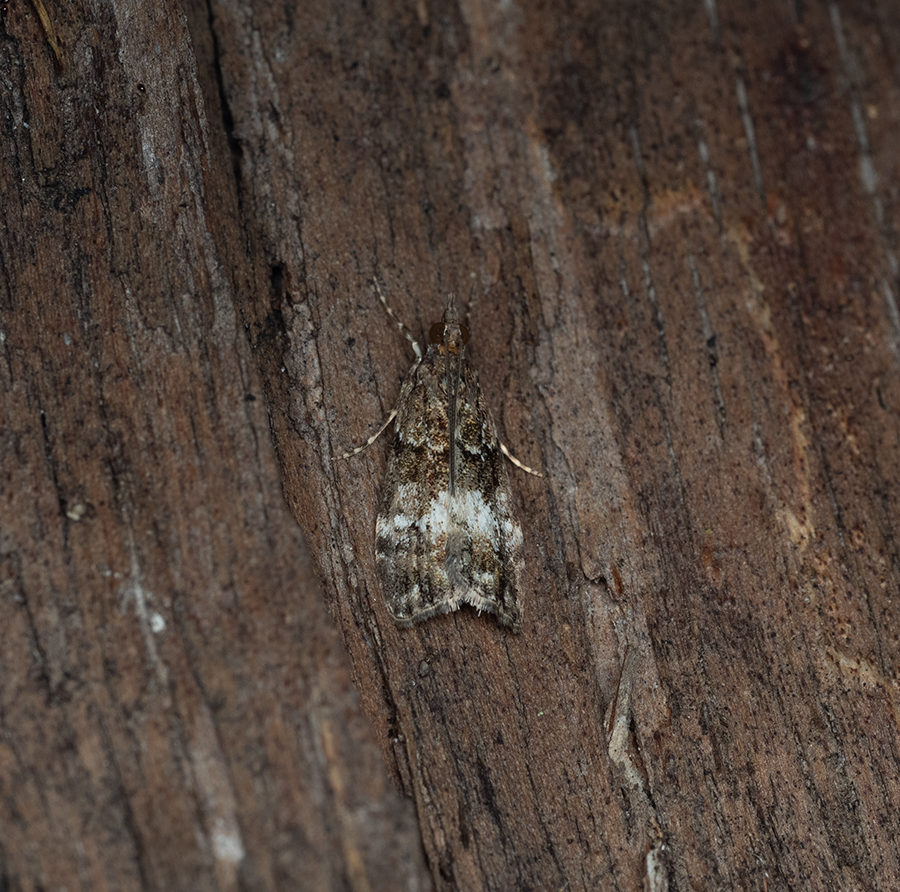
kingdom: Animalia
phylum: Arthropoda
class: Insecta
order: Lepidoptera
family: Crambidae
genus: Eudonia
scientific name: Eudonia dinodes
